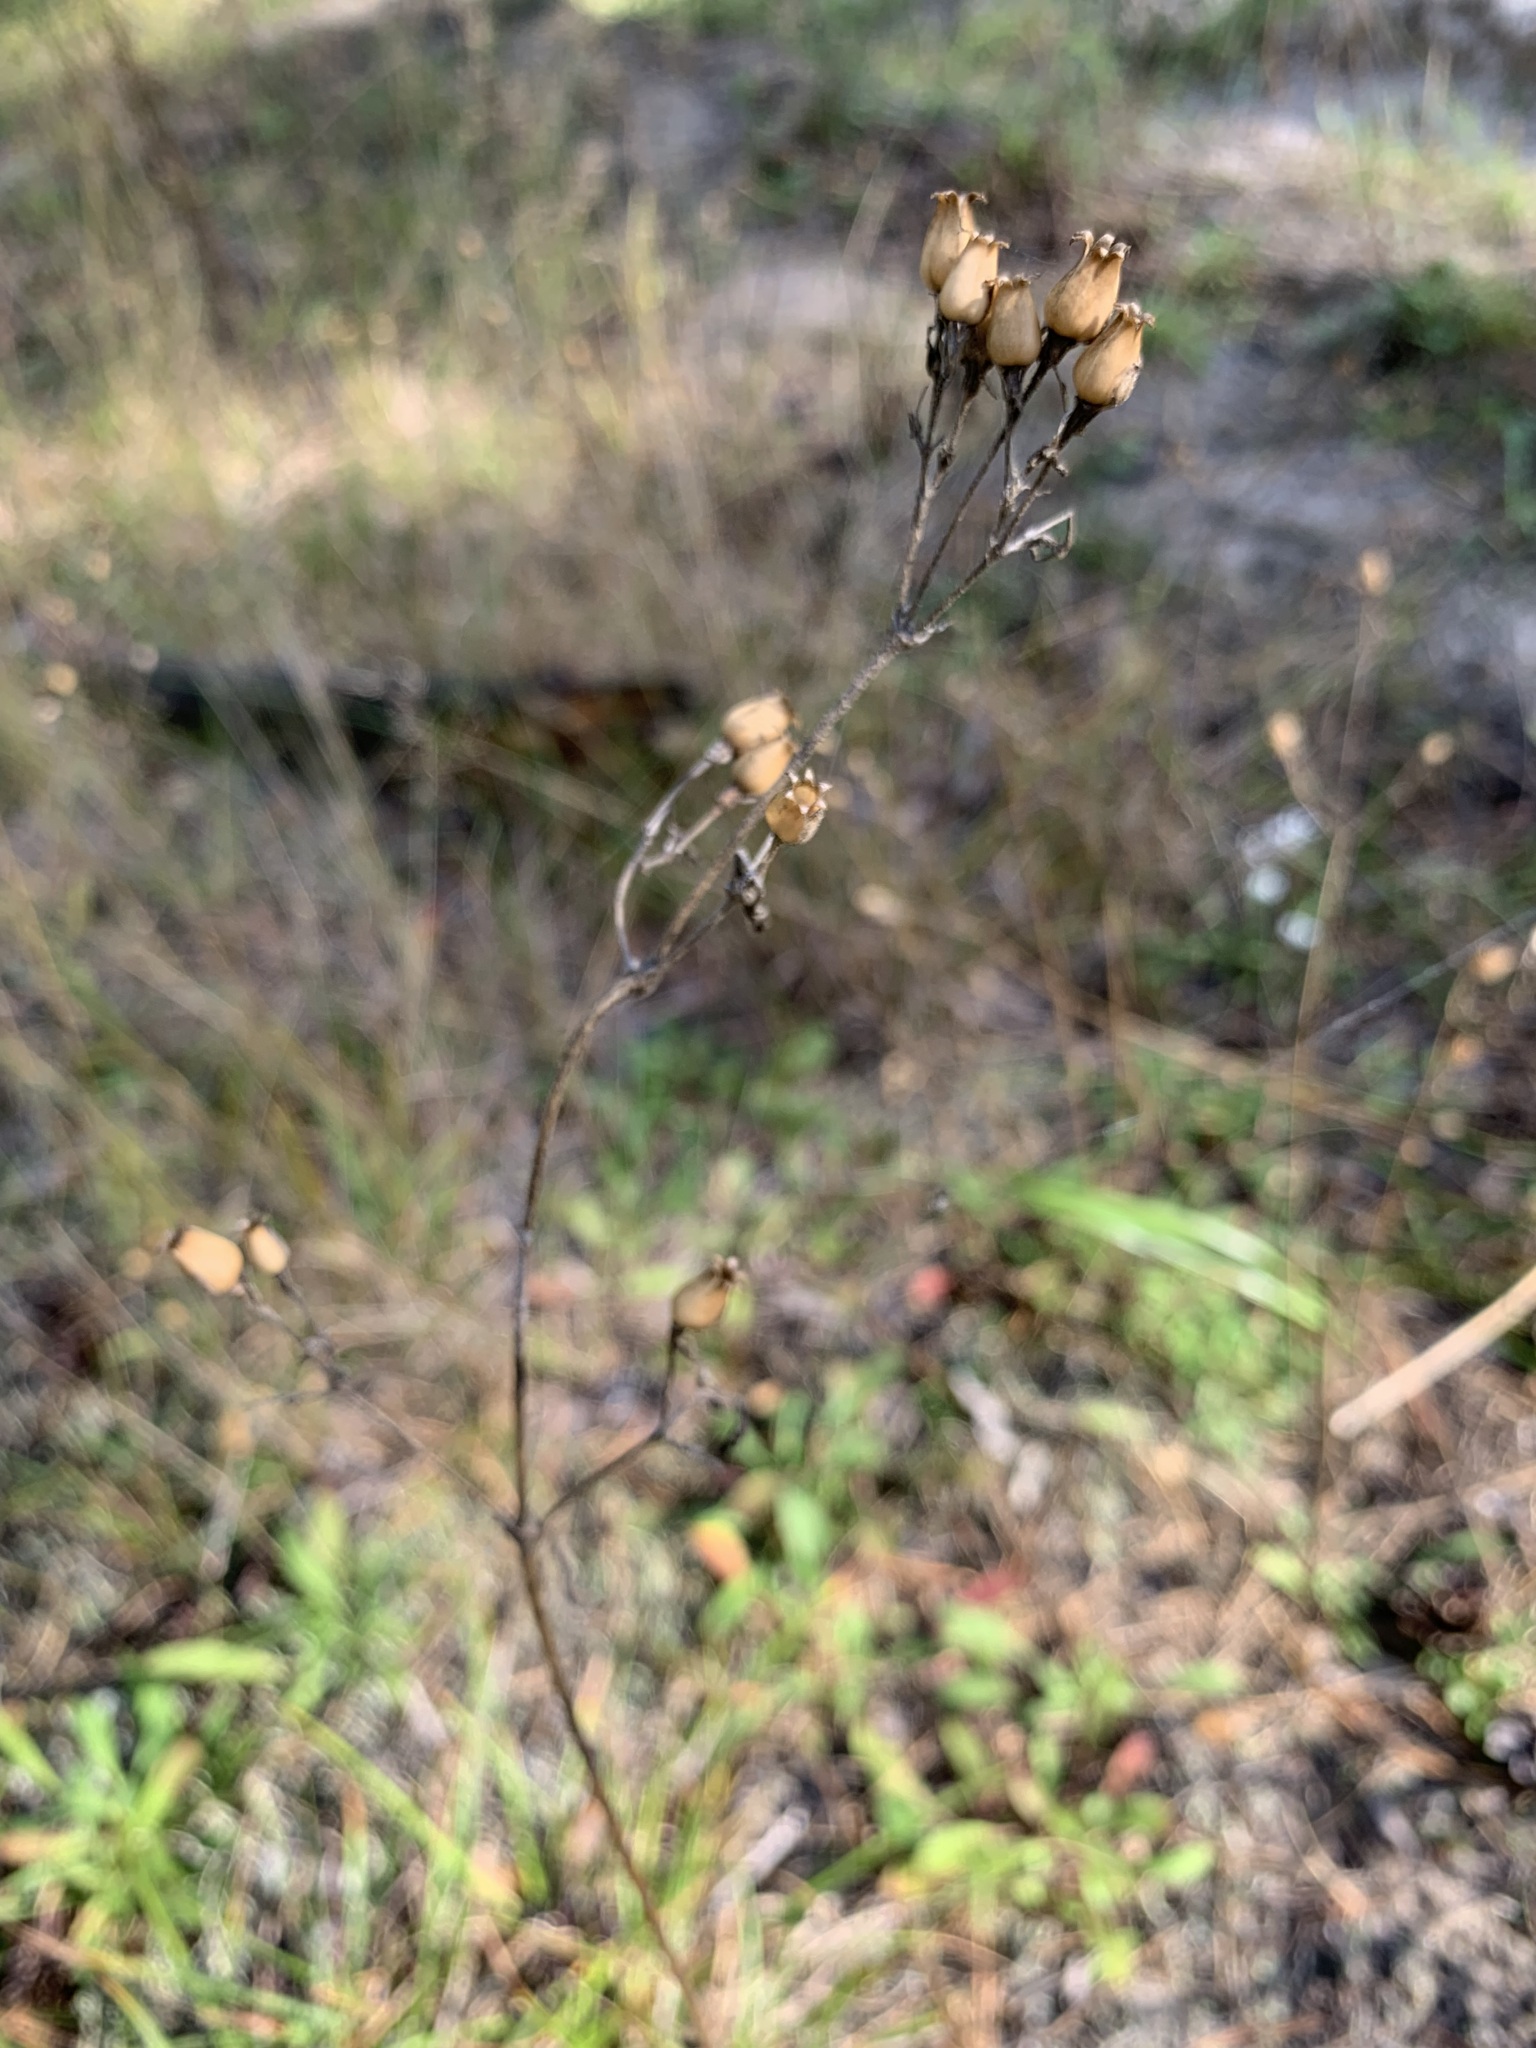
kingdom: Plantae
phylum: Tracheophyta
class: Magnoliopsida
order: Caryophyllales
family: Caryophyllaceae
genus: Silene
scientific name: Silene nutans
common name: Nottingham catchfly
